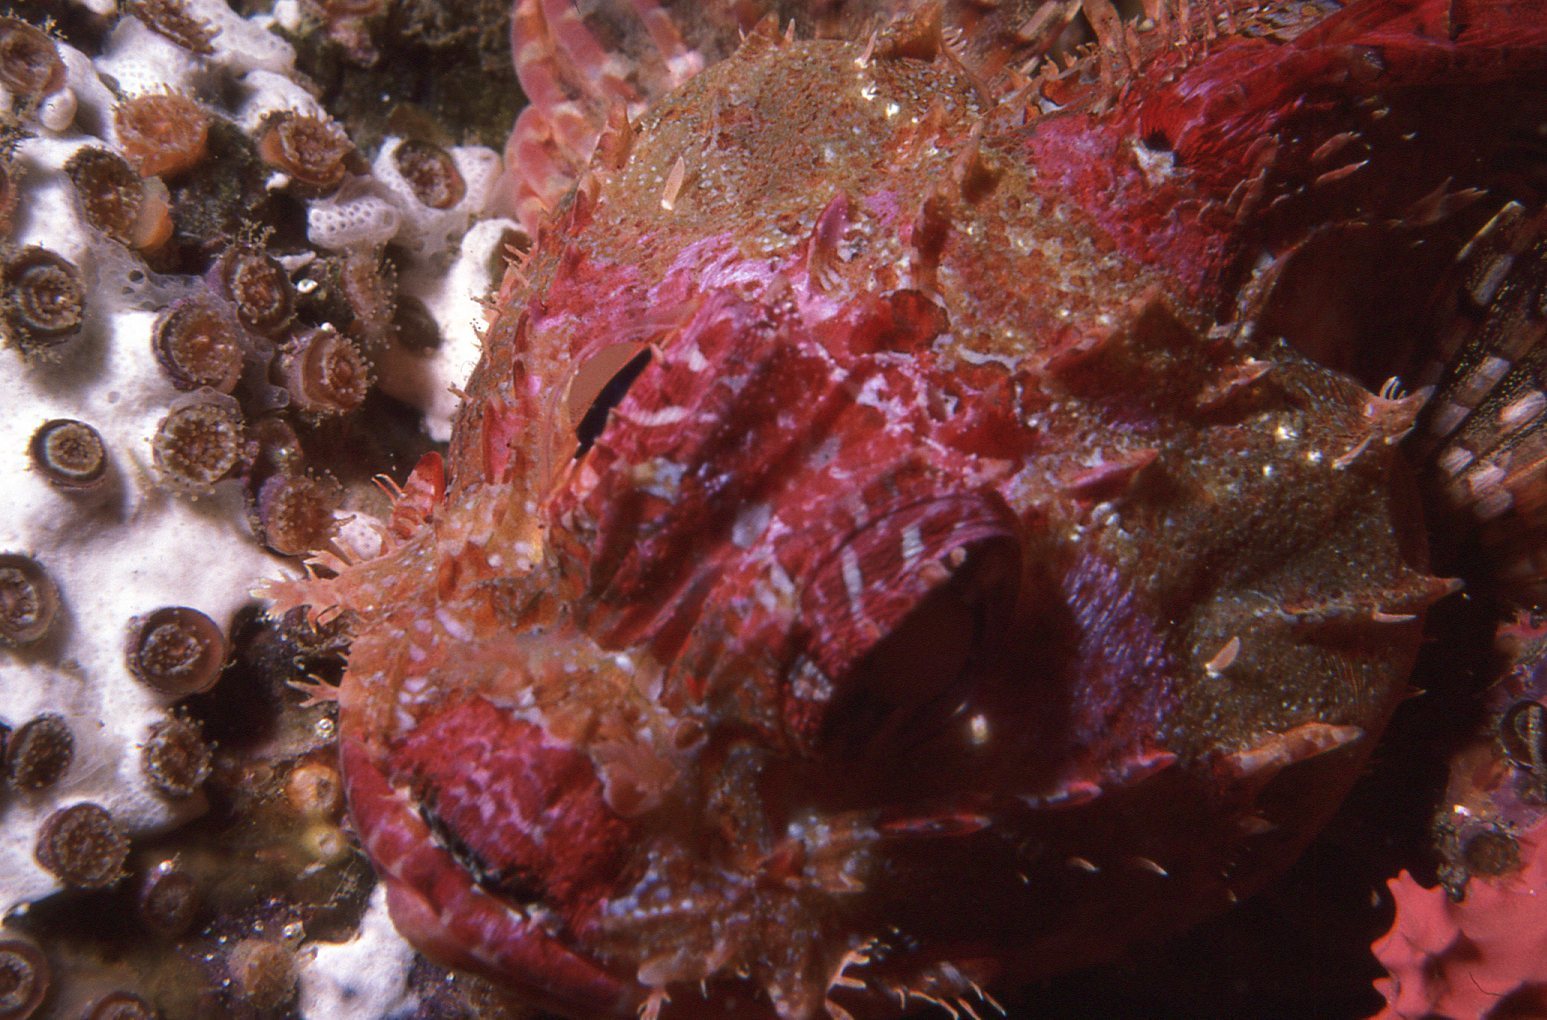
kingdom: Animalia
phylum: Chordata
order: Scorpaeniformes
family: Scorpaenidae
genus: Scorpaena
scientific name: Scorpaena jacksoniensis
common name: Eastern red scorpionfish
